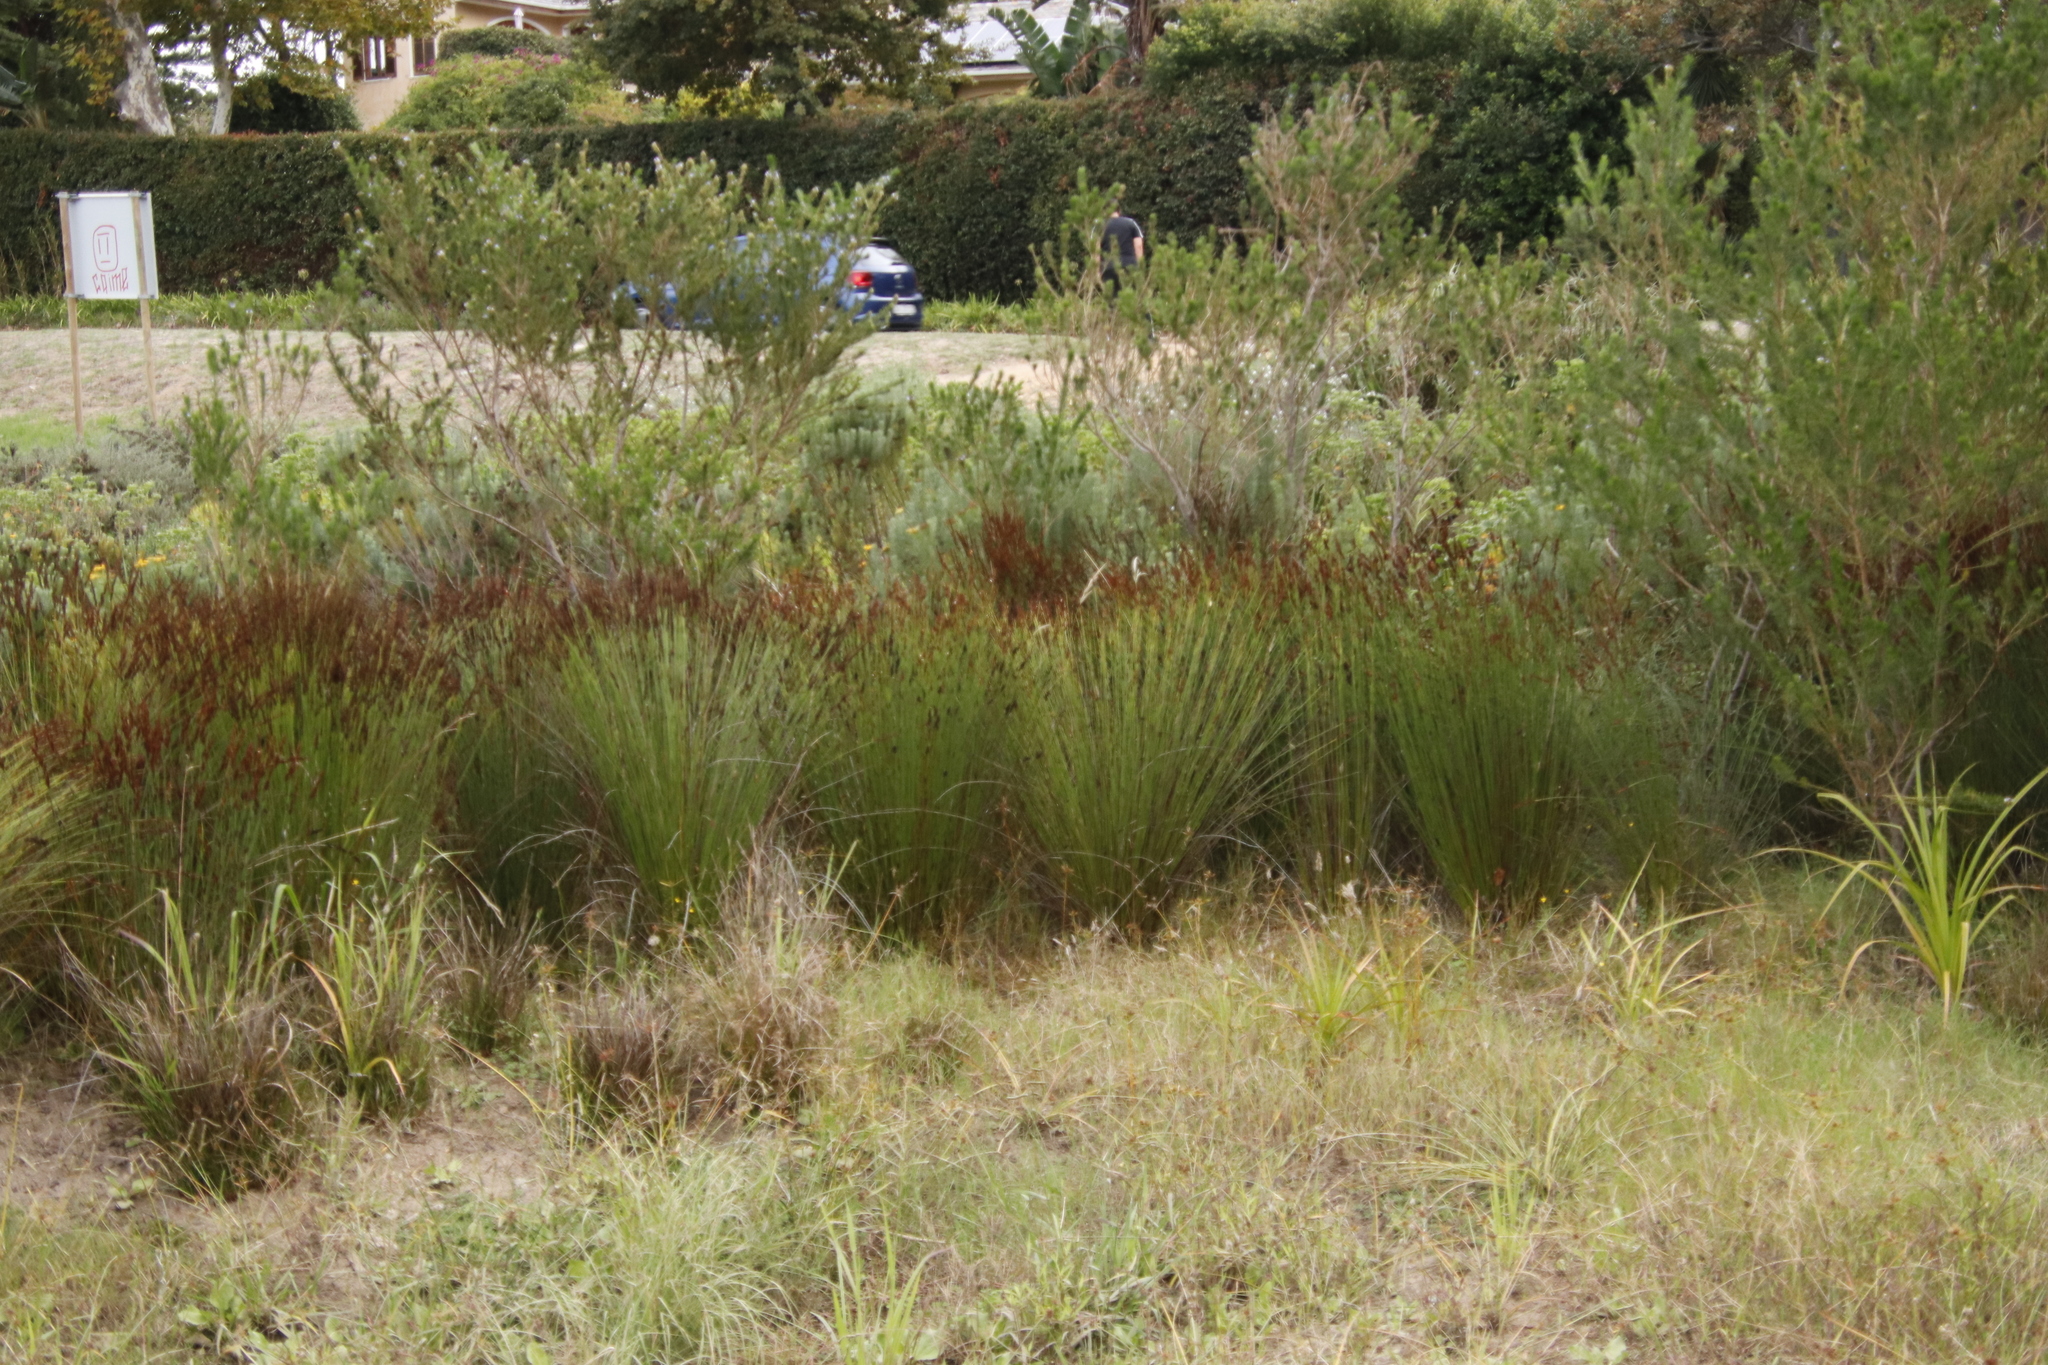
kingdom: Plantae
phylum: Tracheophyta
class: Liliopsida
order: Poales
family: Restionaceae
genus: Elegia
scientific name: Elegia tectorum
